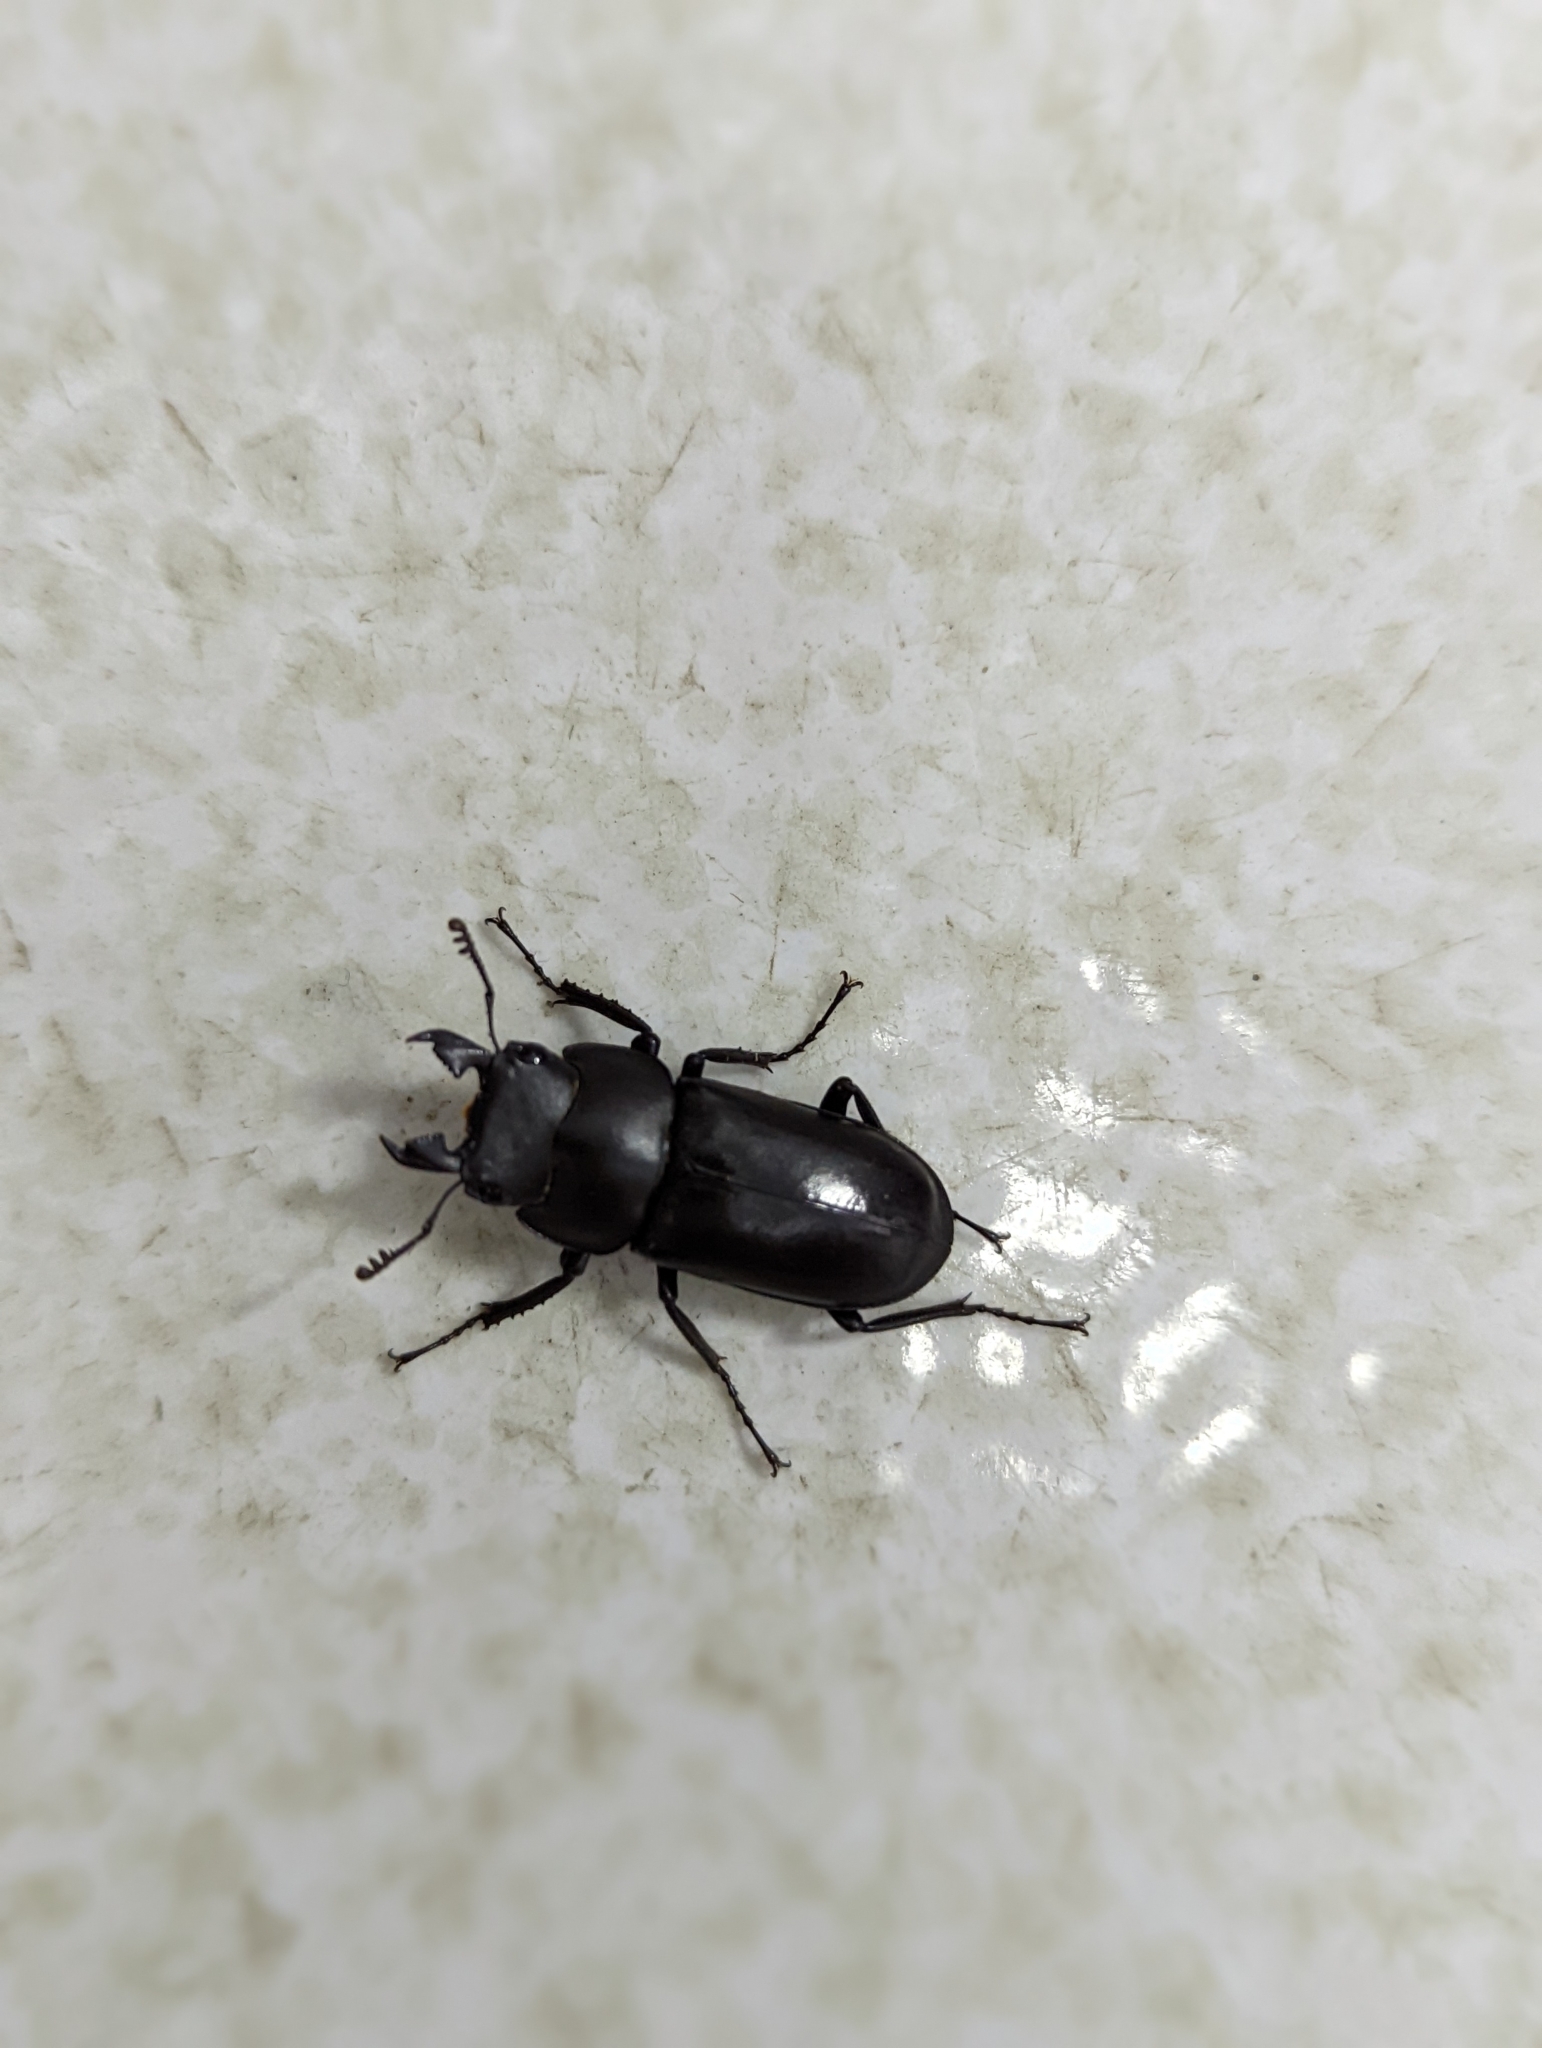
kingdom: Animalia
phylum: Arthropoda
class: Insecta
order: Coleoptera
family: Lucanidae
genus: Falcicornis
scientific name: Falcicornis tenuecostatus
